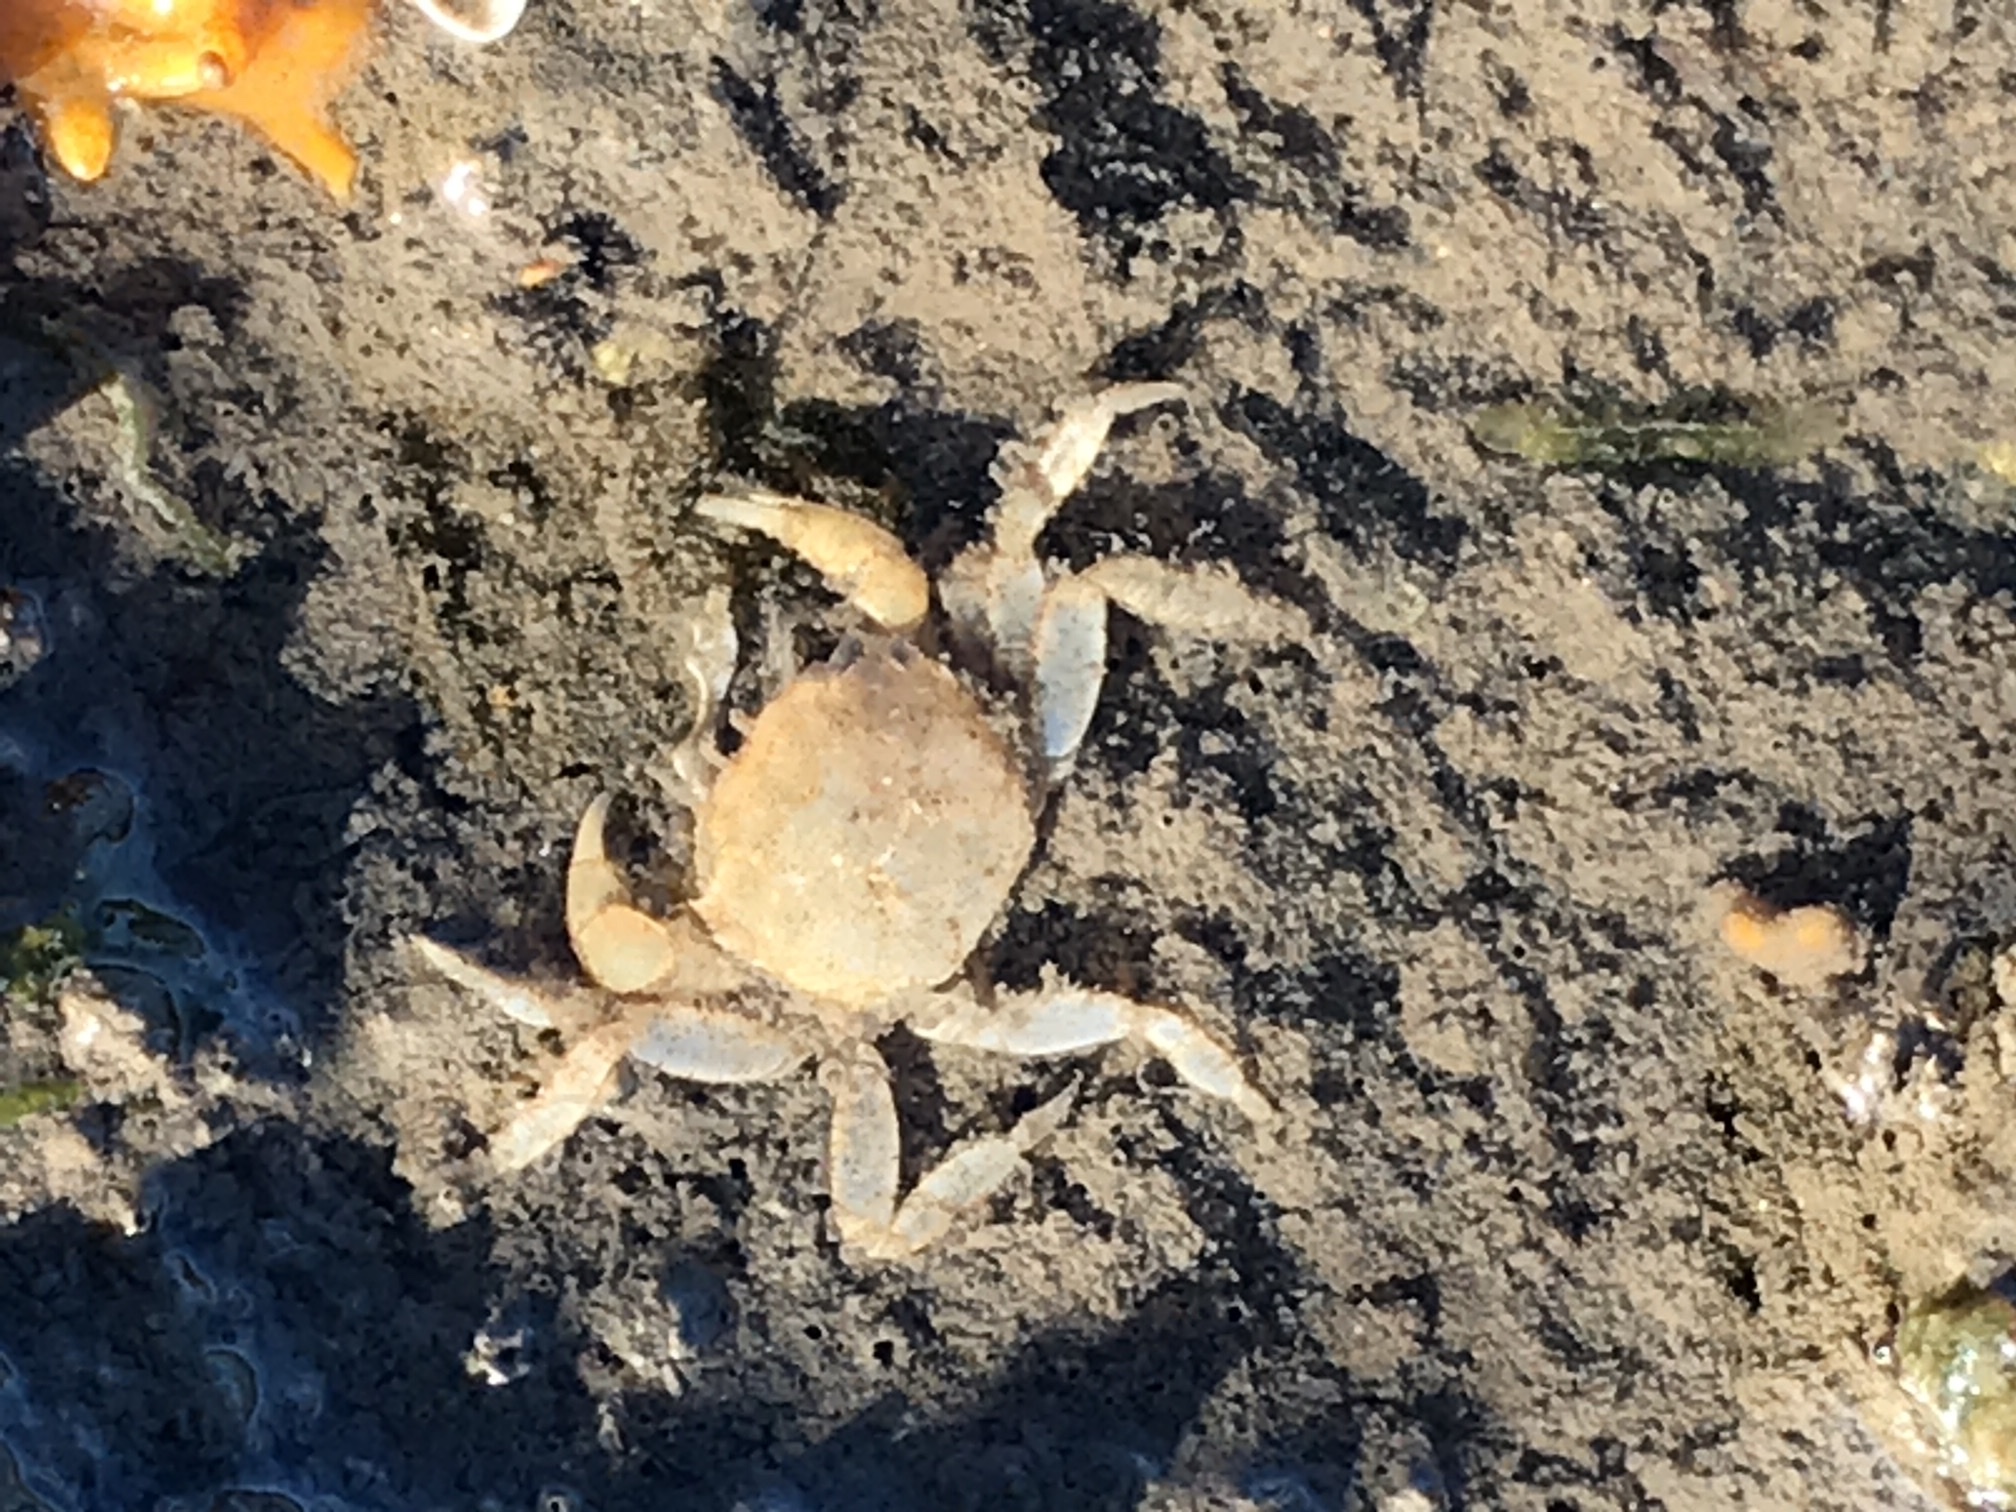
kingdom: Animalia
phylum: Arthropoda
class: Malacostraca
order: Decapoda
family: Varunidae
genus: Hemigrapsus
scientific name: Hemigrapsus oregonensis
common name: Yellow shore crab
